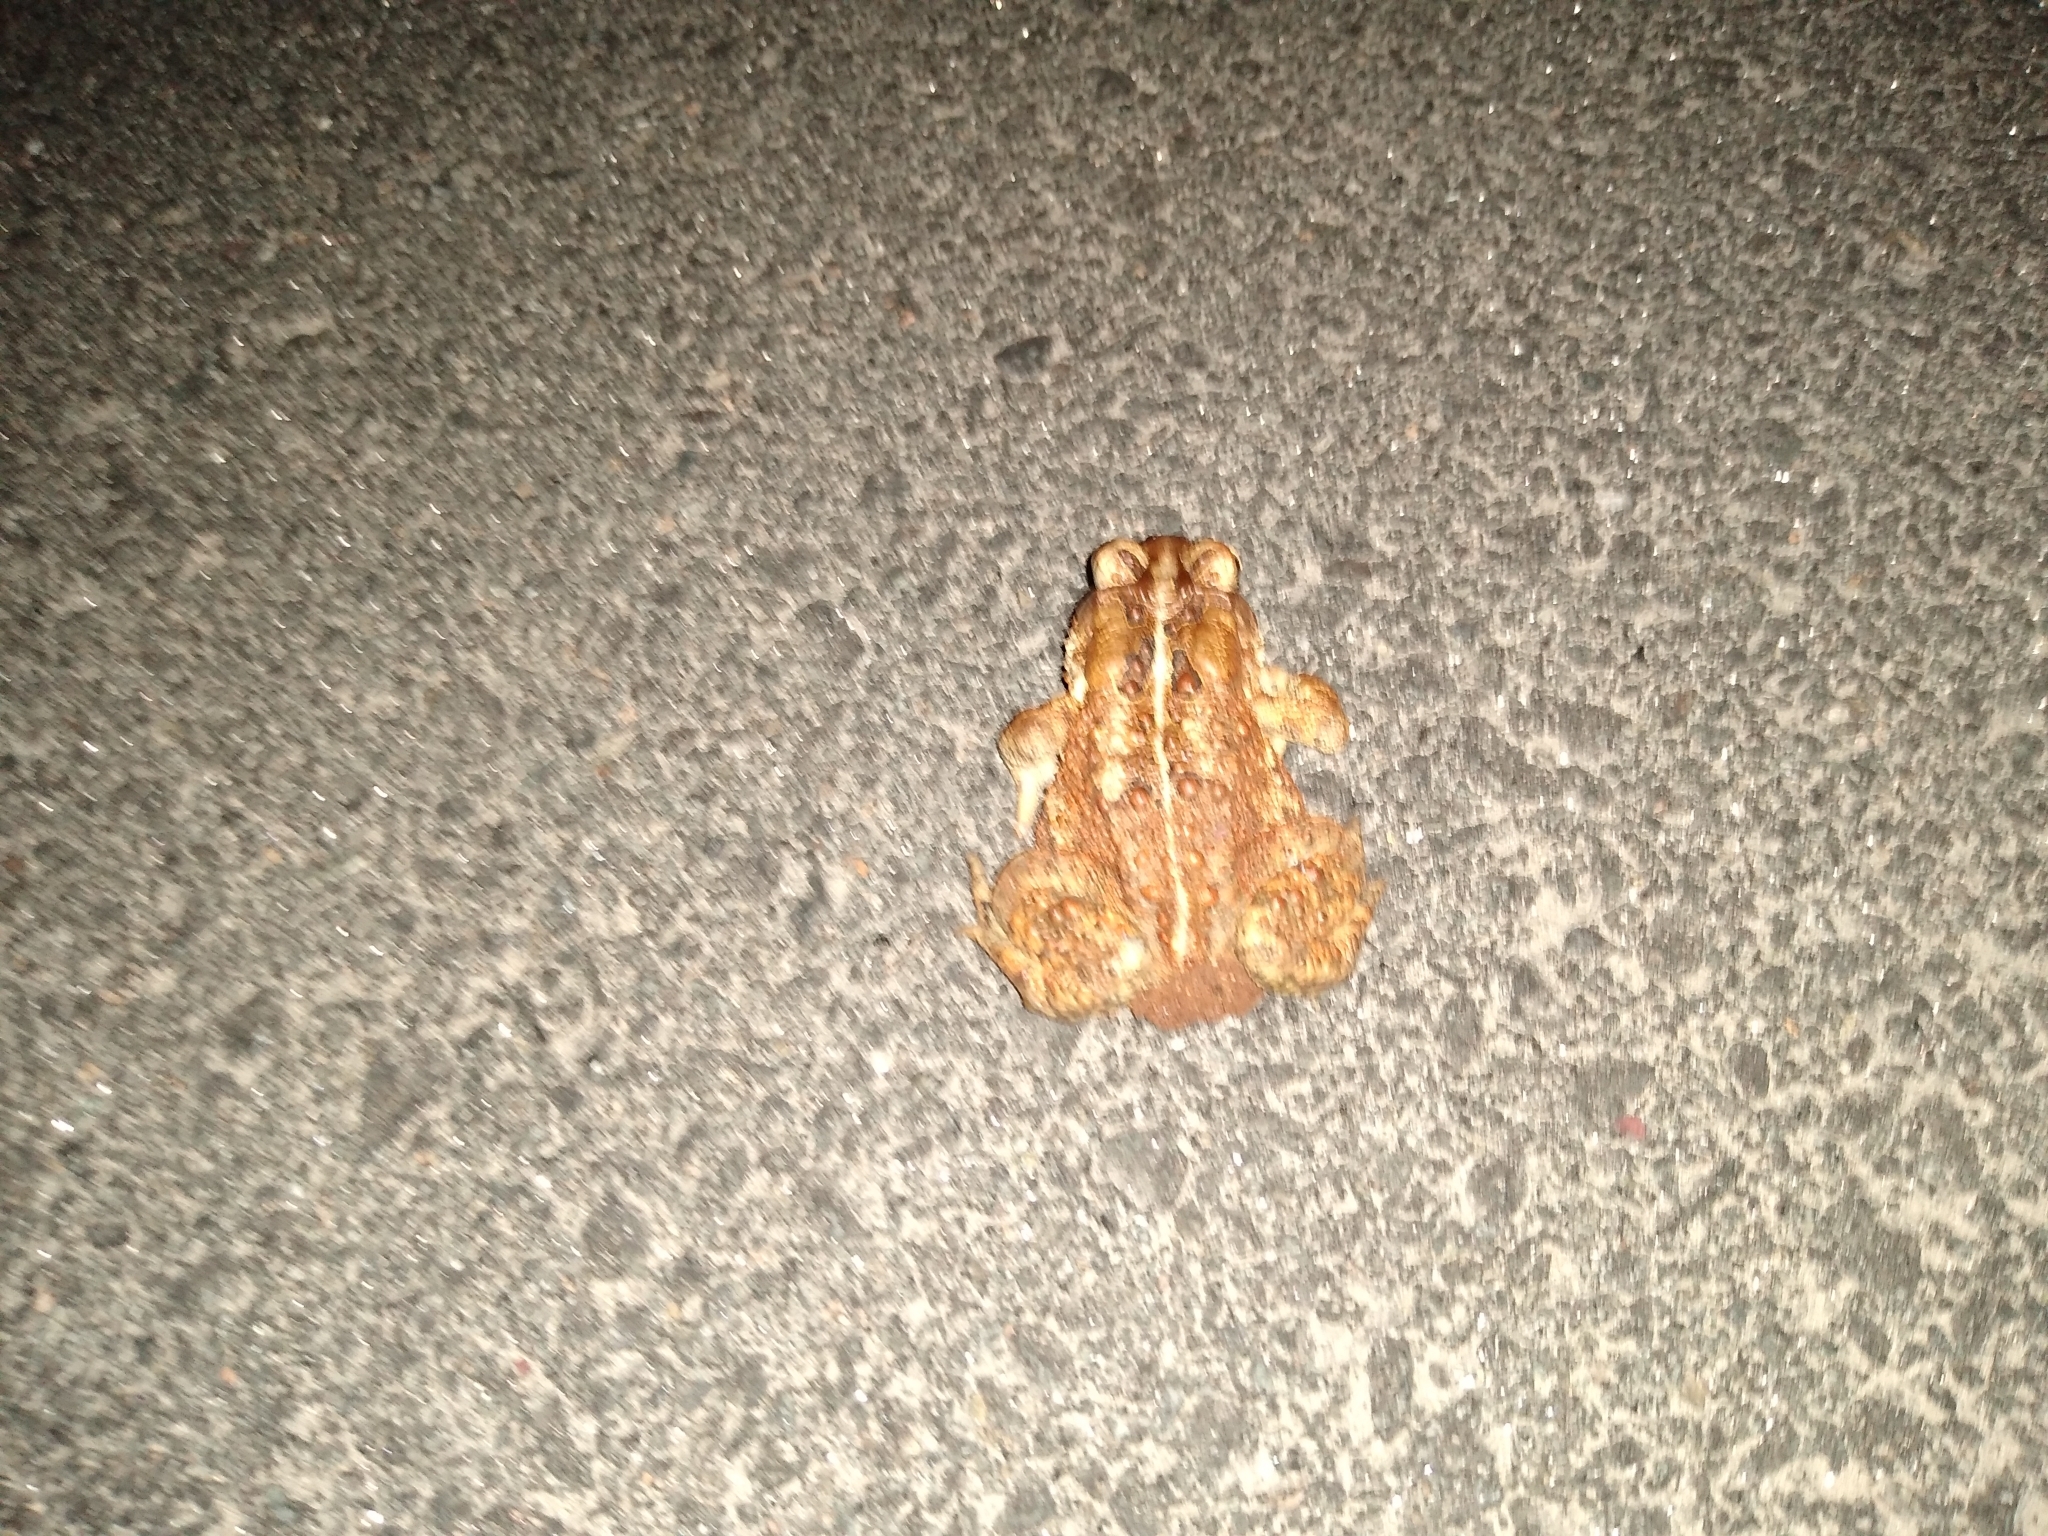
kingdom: Animalia
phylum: Chordata
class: Amphibia
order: Anura
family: Bufonidae
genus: Anaxyrus
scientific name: Anaxyrus americanus
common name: American toad
